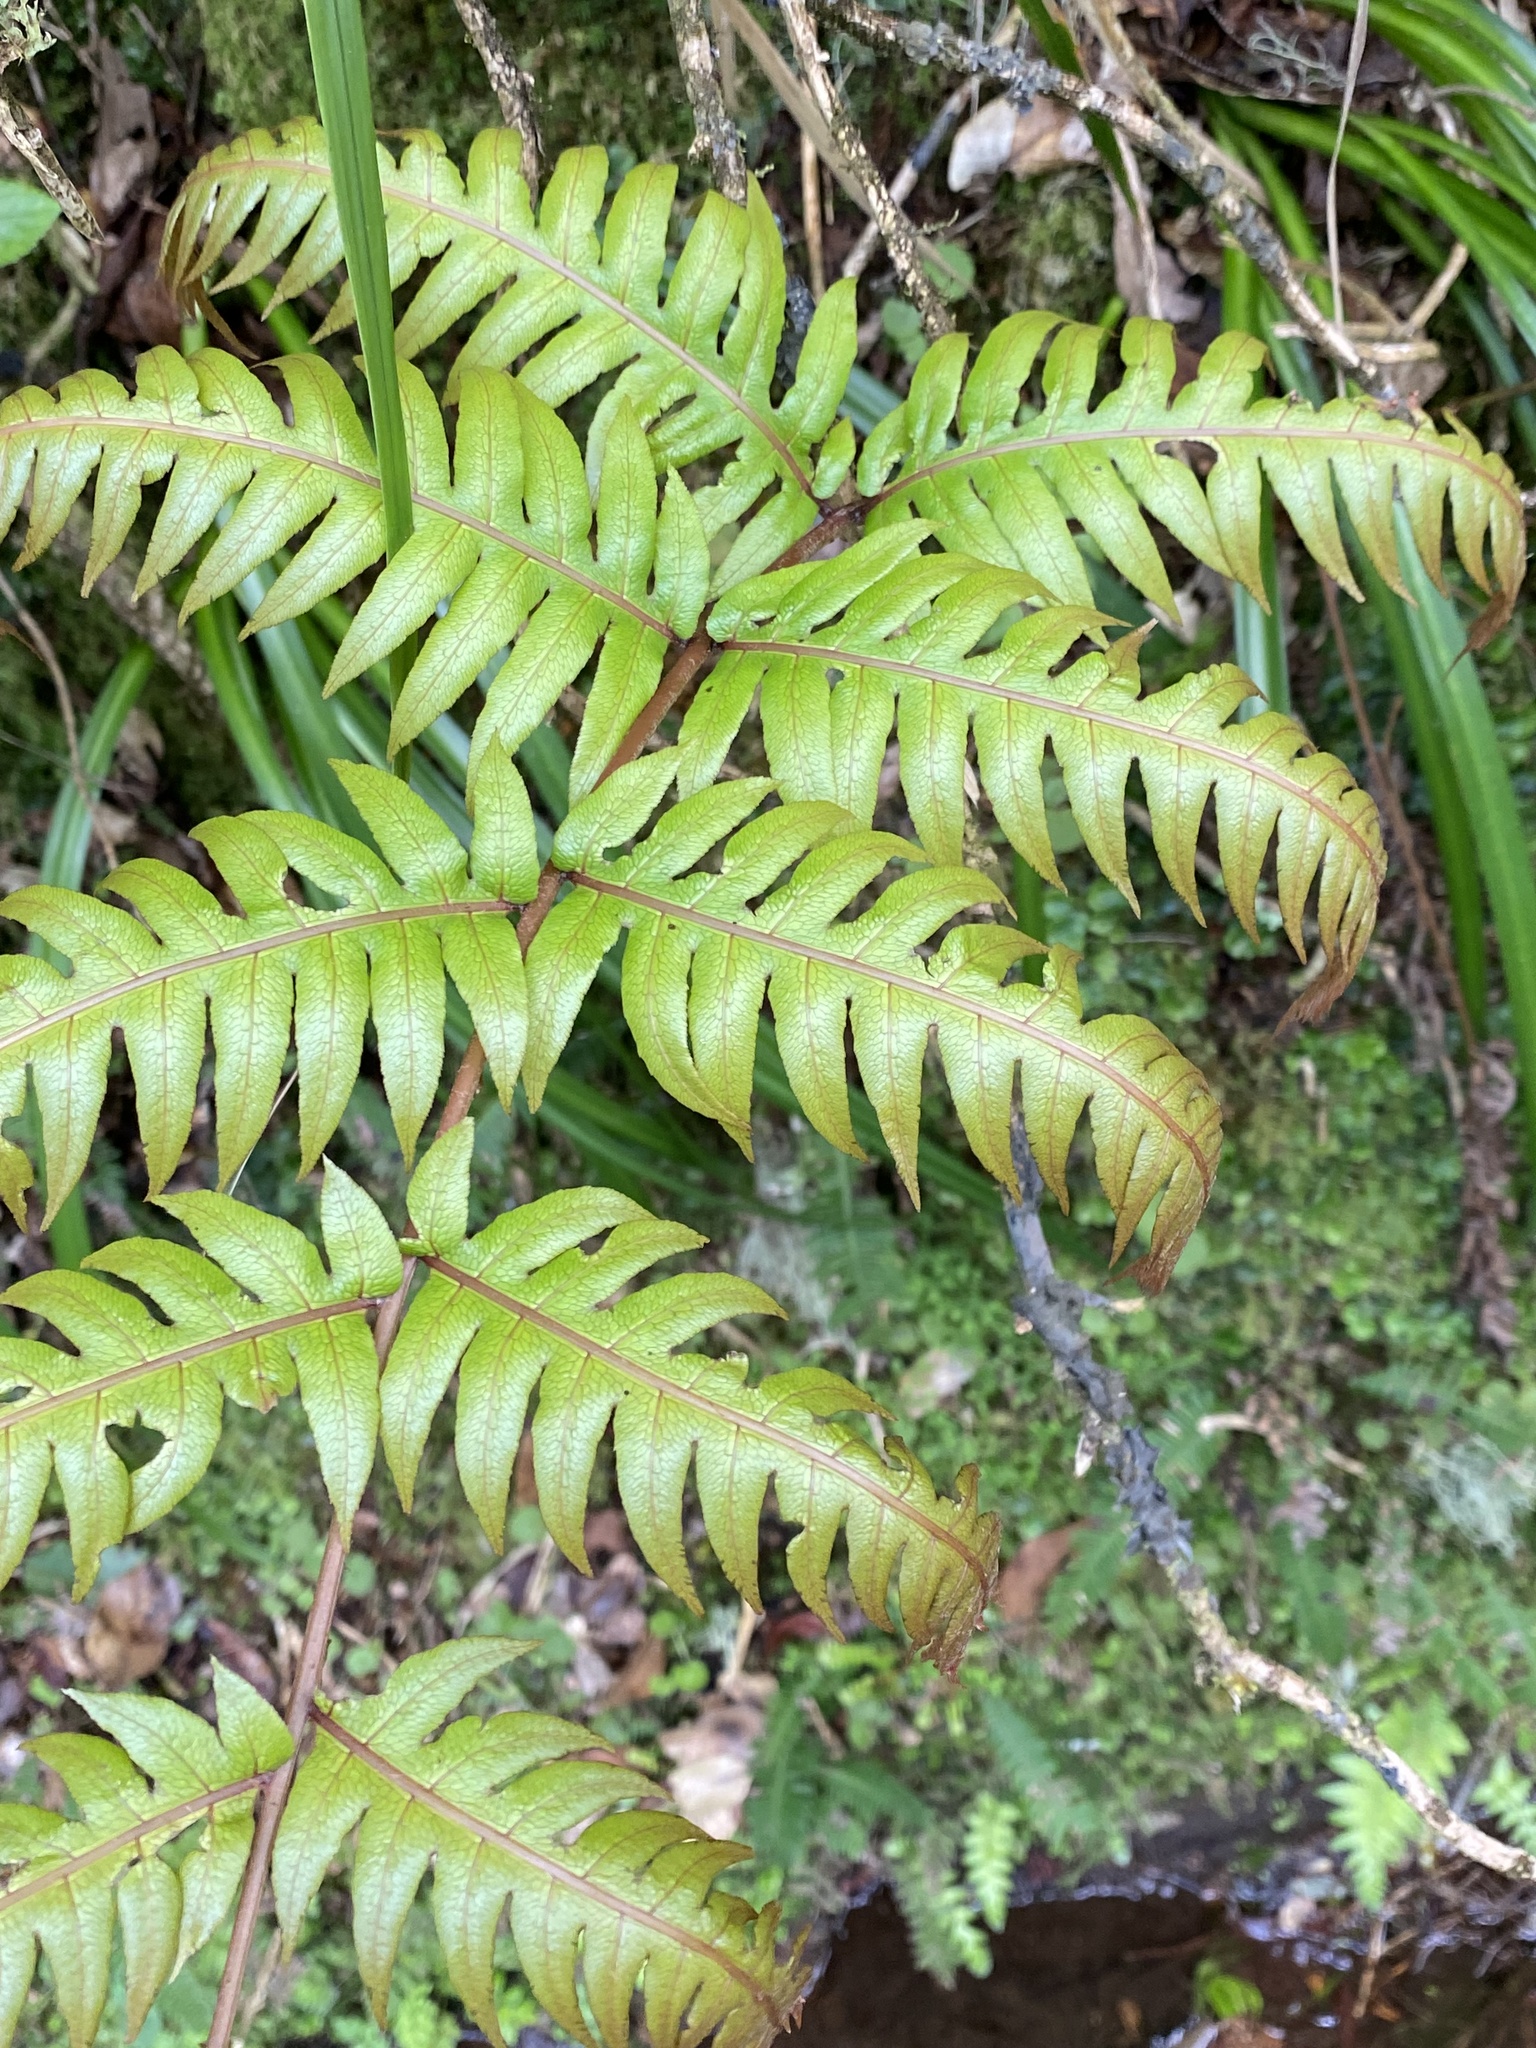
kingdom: Plantae
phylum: Tracheophyta
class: Polypodiopsida
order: Polypodiales
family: Blechnaceae
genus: Woodwardia
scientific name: Woodwardia radicans
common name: Rooting chainfern
